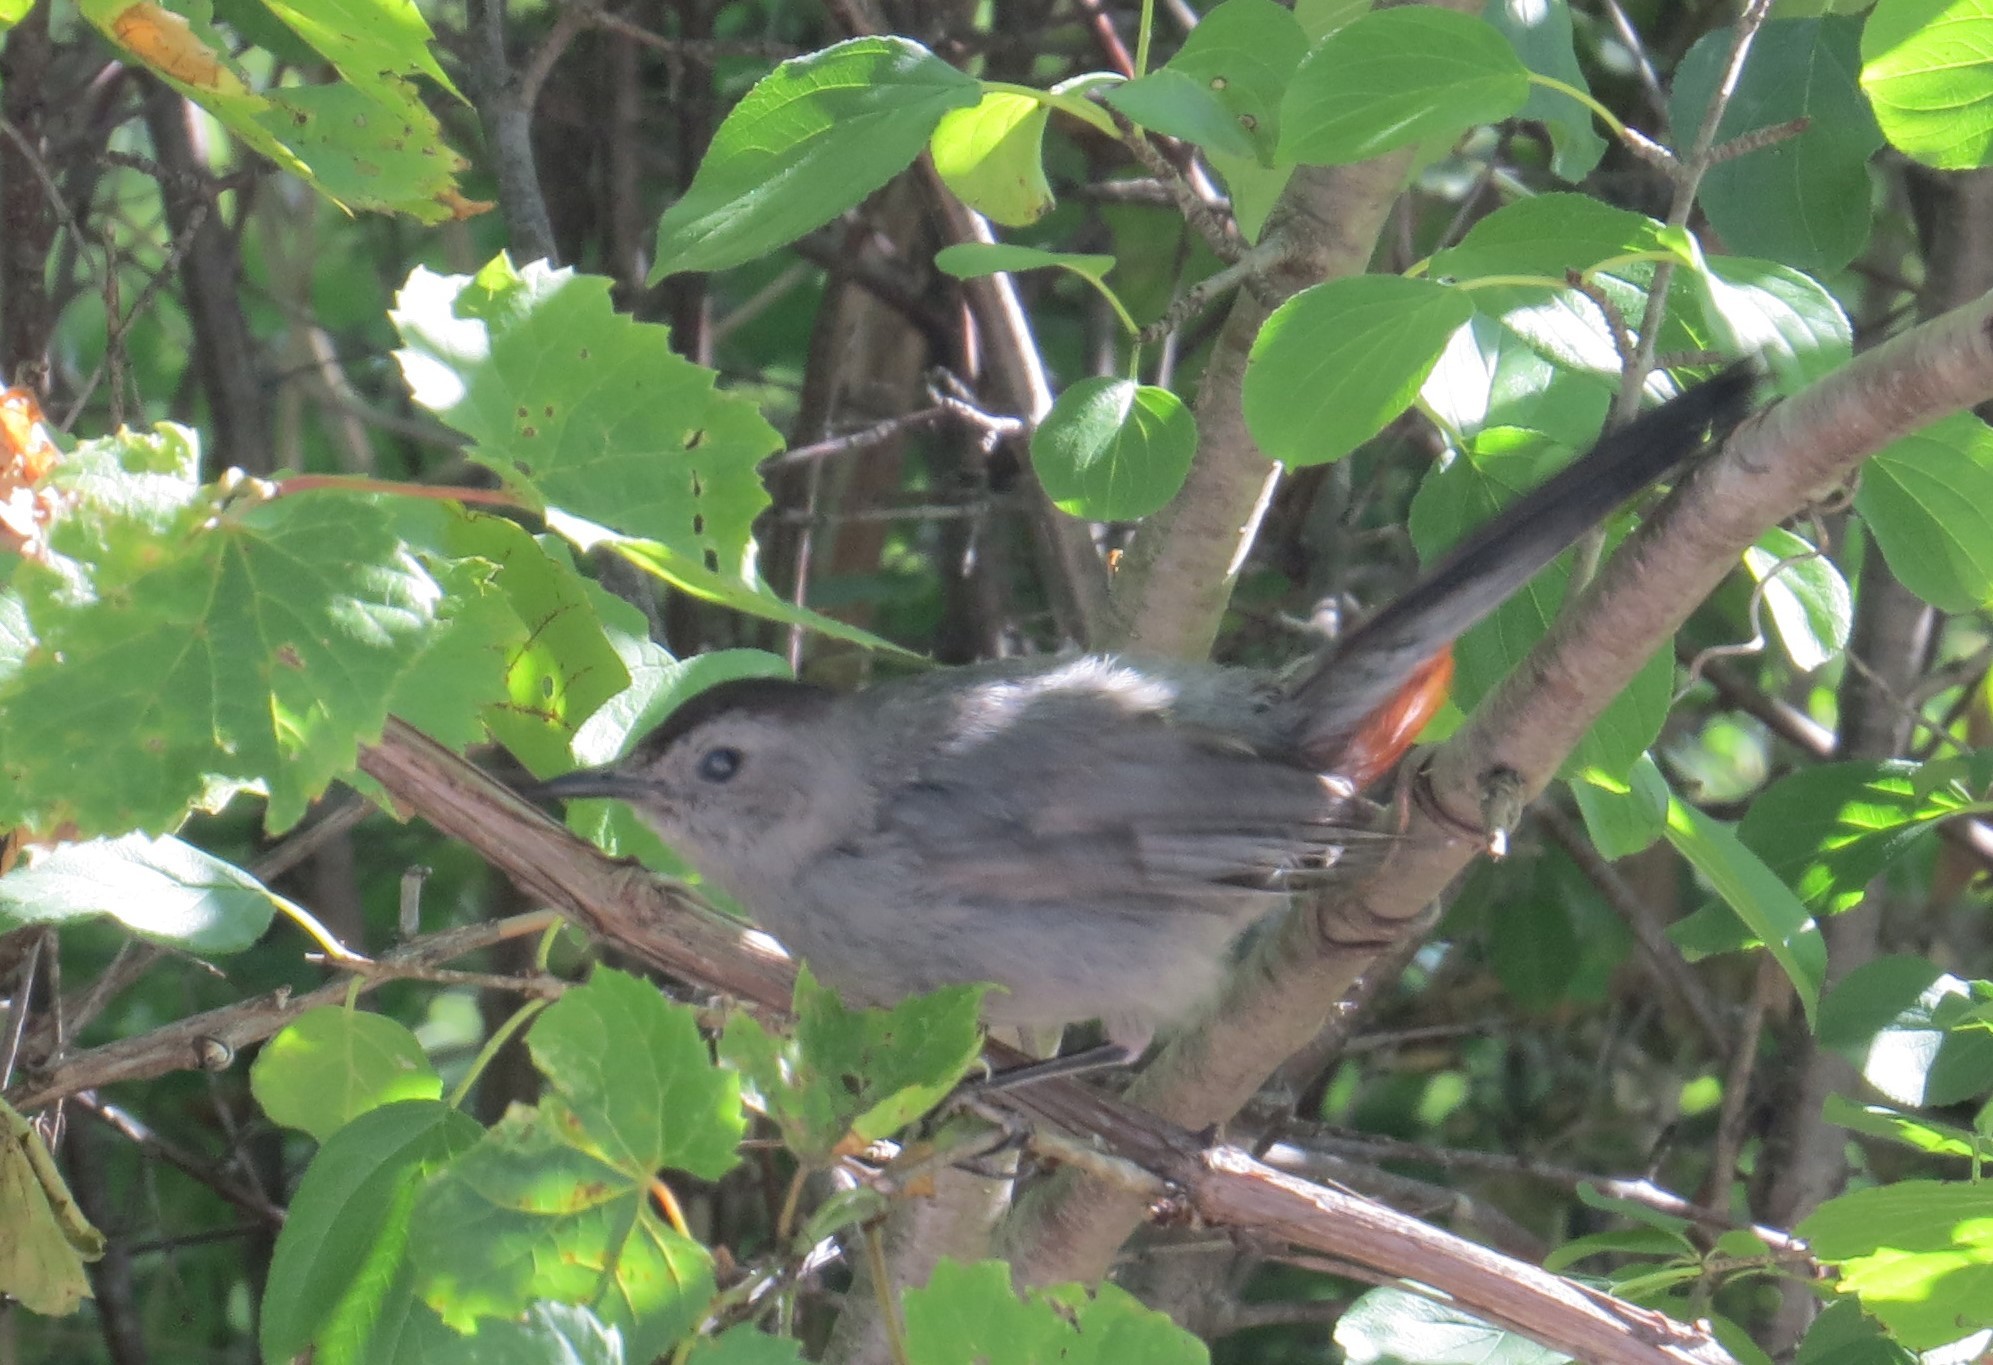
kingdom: Animalia
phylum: Chordata
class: Aves
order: Passeriformes
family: Mimidae
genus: Dumetella
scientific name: Dumetella carolinensis
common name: Gray catbird
